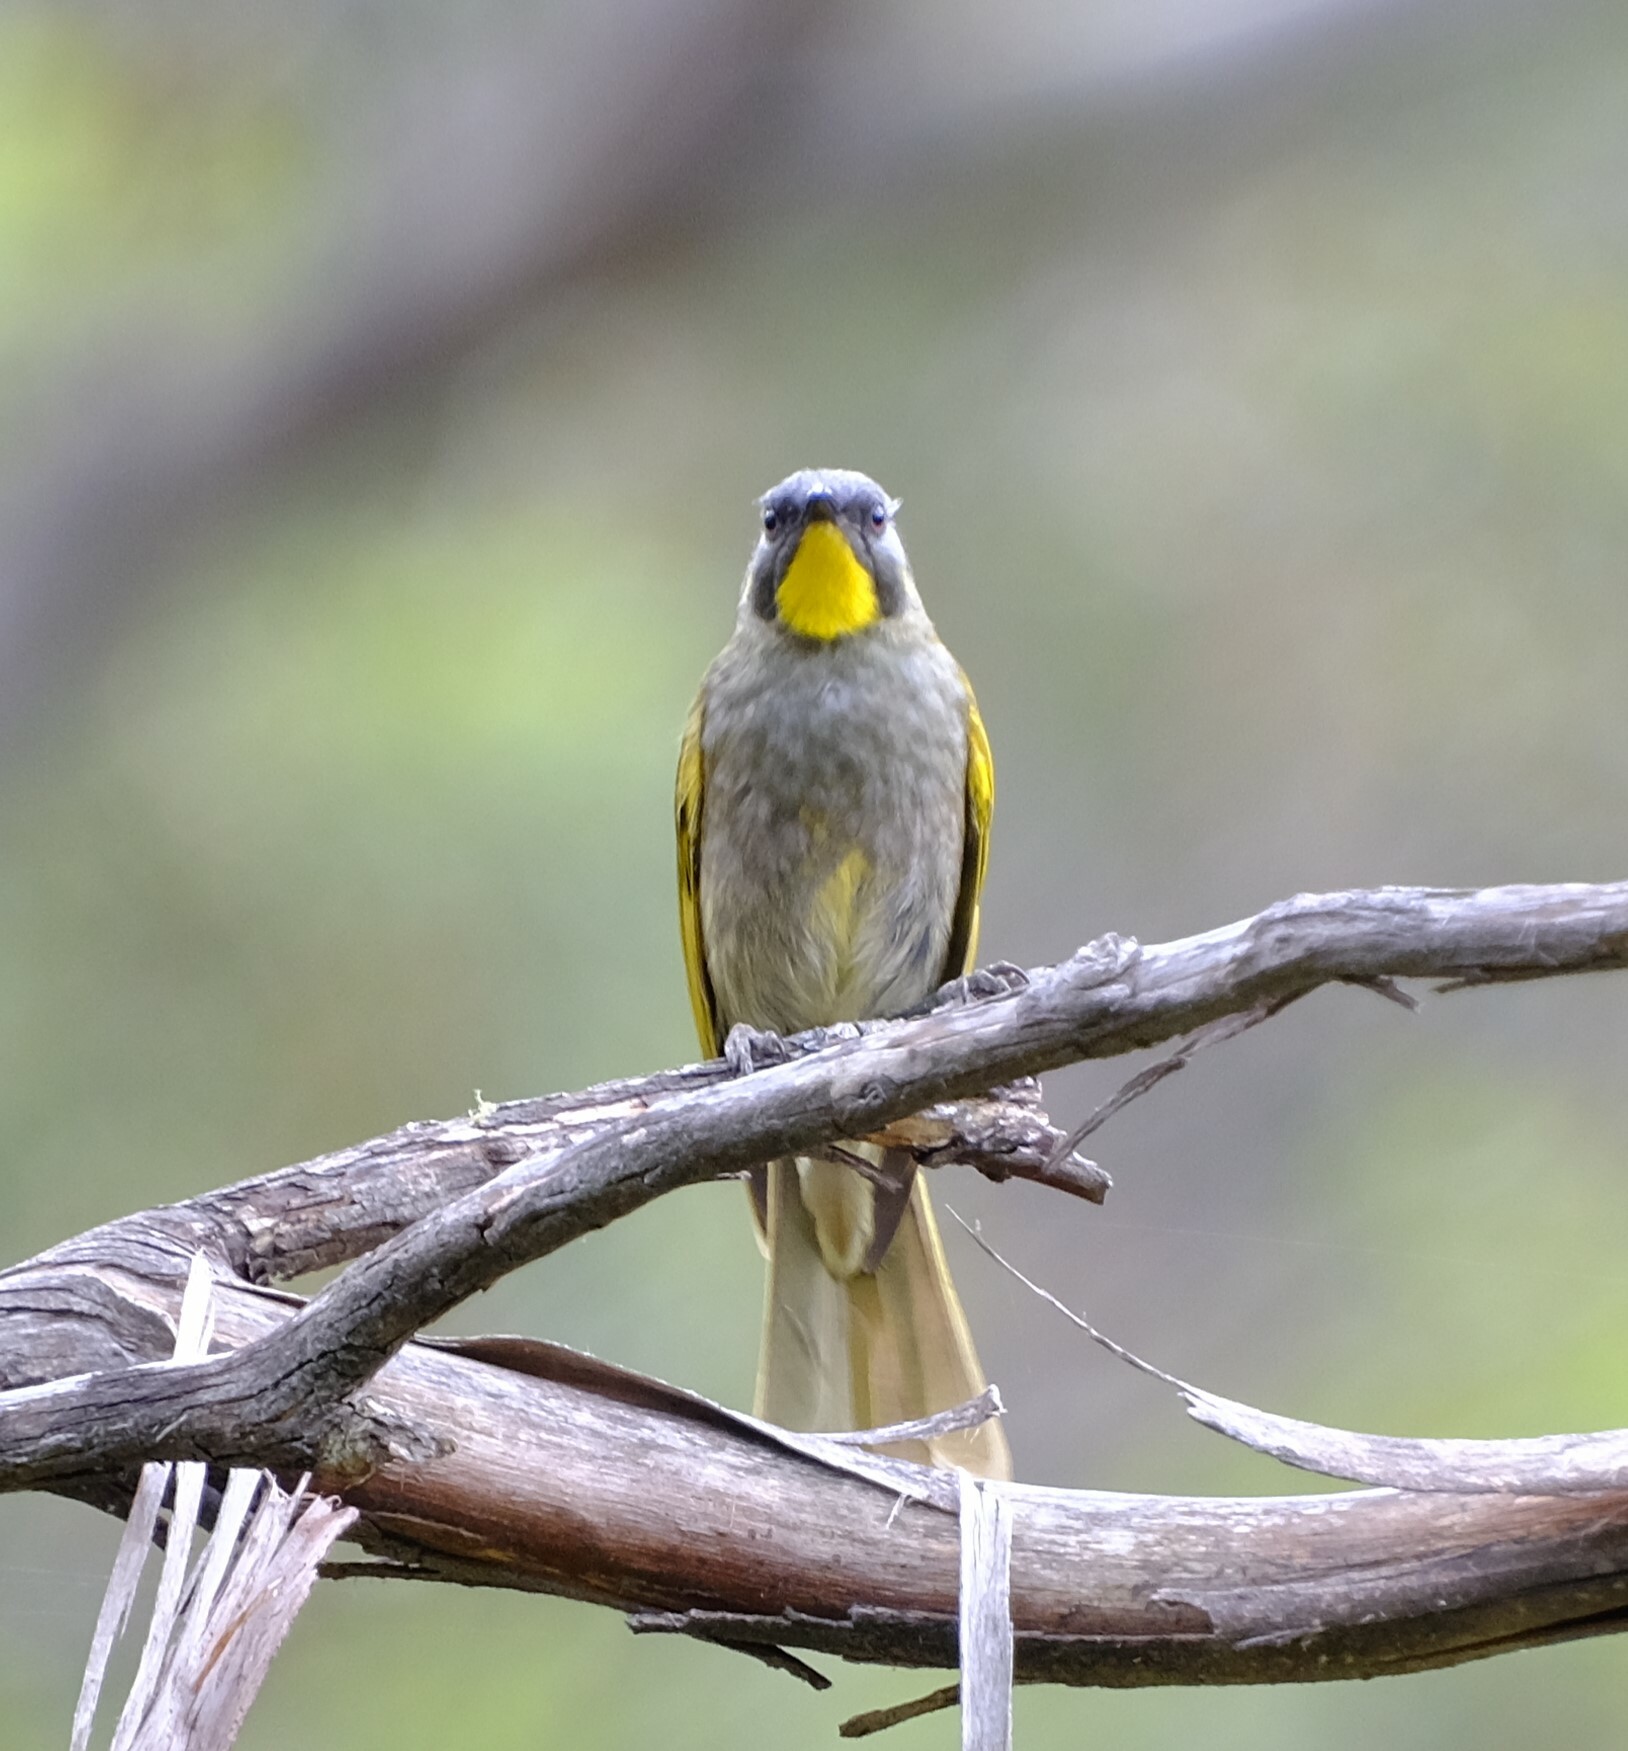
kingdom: Animalia
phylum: Chordata
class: Aves
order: Passeriformes
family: Meliphagidae
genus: Nesoptilotis
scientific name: Nesoptilotis flavicollis
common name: Yellow-throated honeyeater
